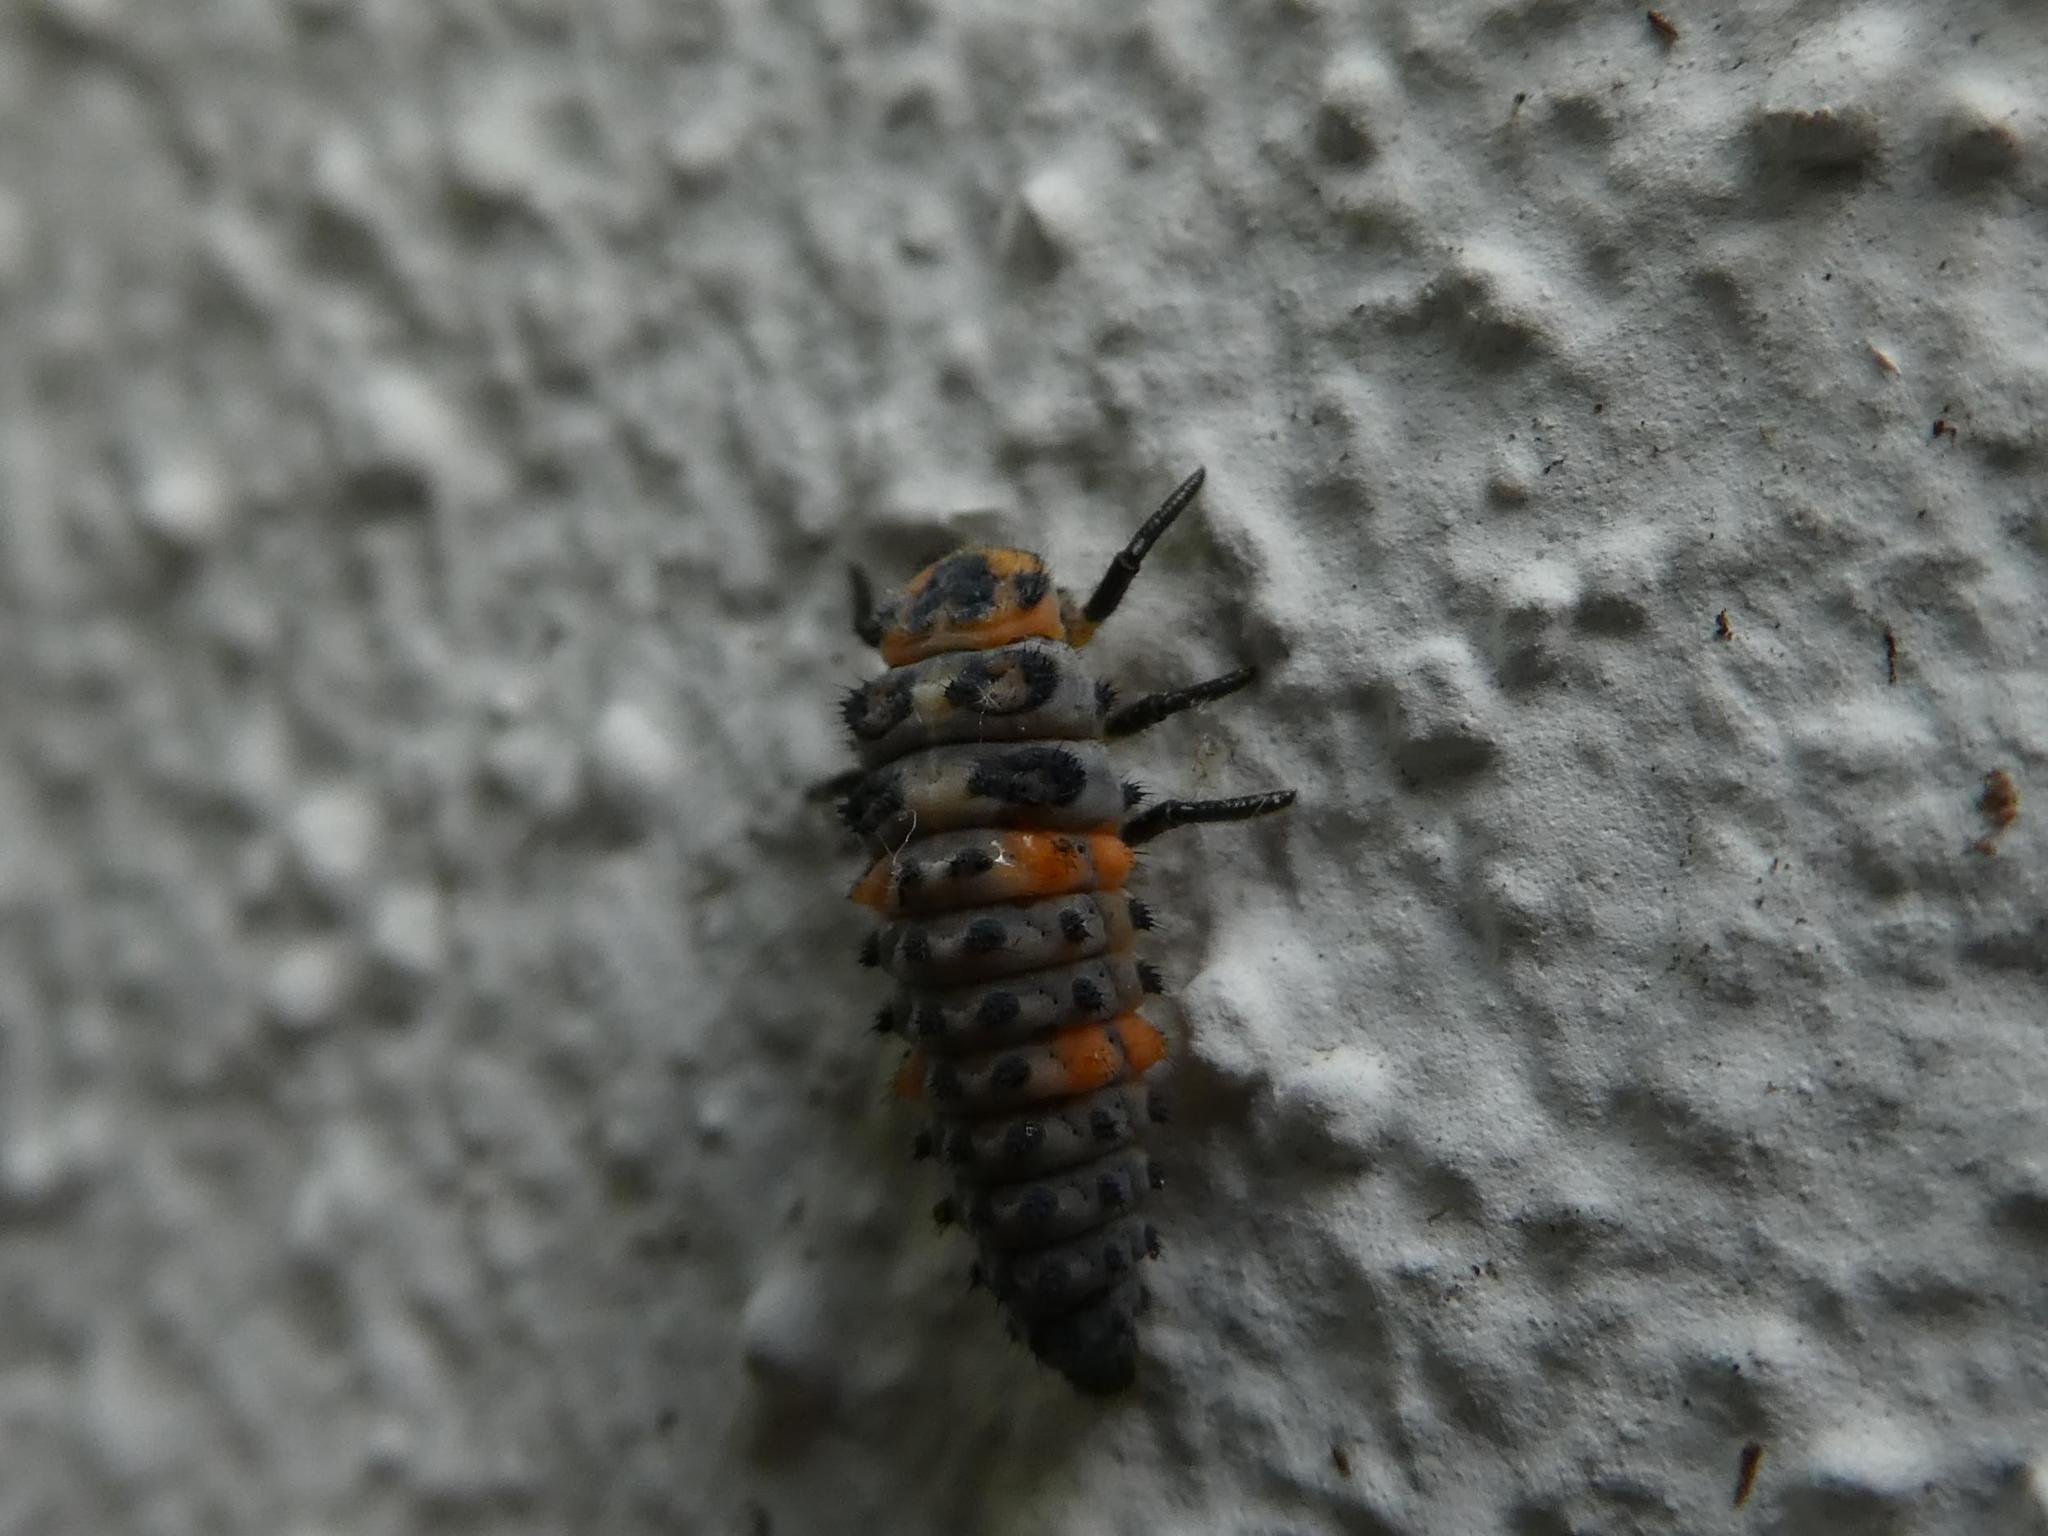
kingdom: Animalia
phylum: Arthropoda
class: Insecta
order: Coleoptera
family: Coccinellidae
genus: Coccinella
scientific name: Coccinella septempunctata
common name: Sevenspotted lady beetle
